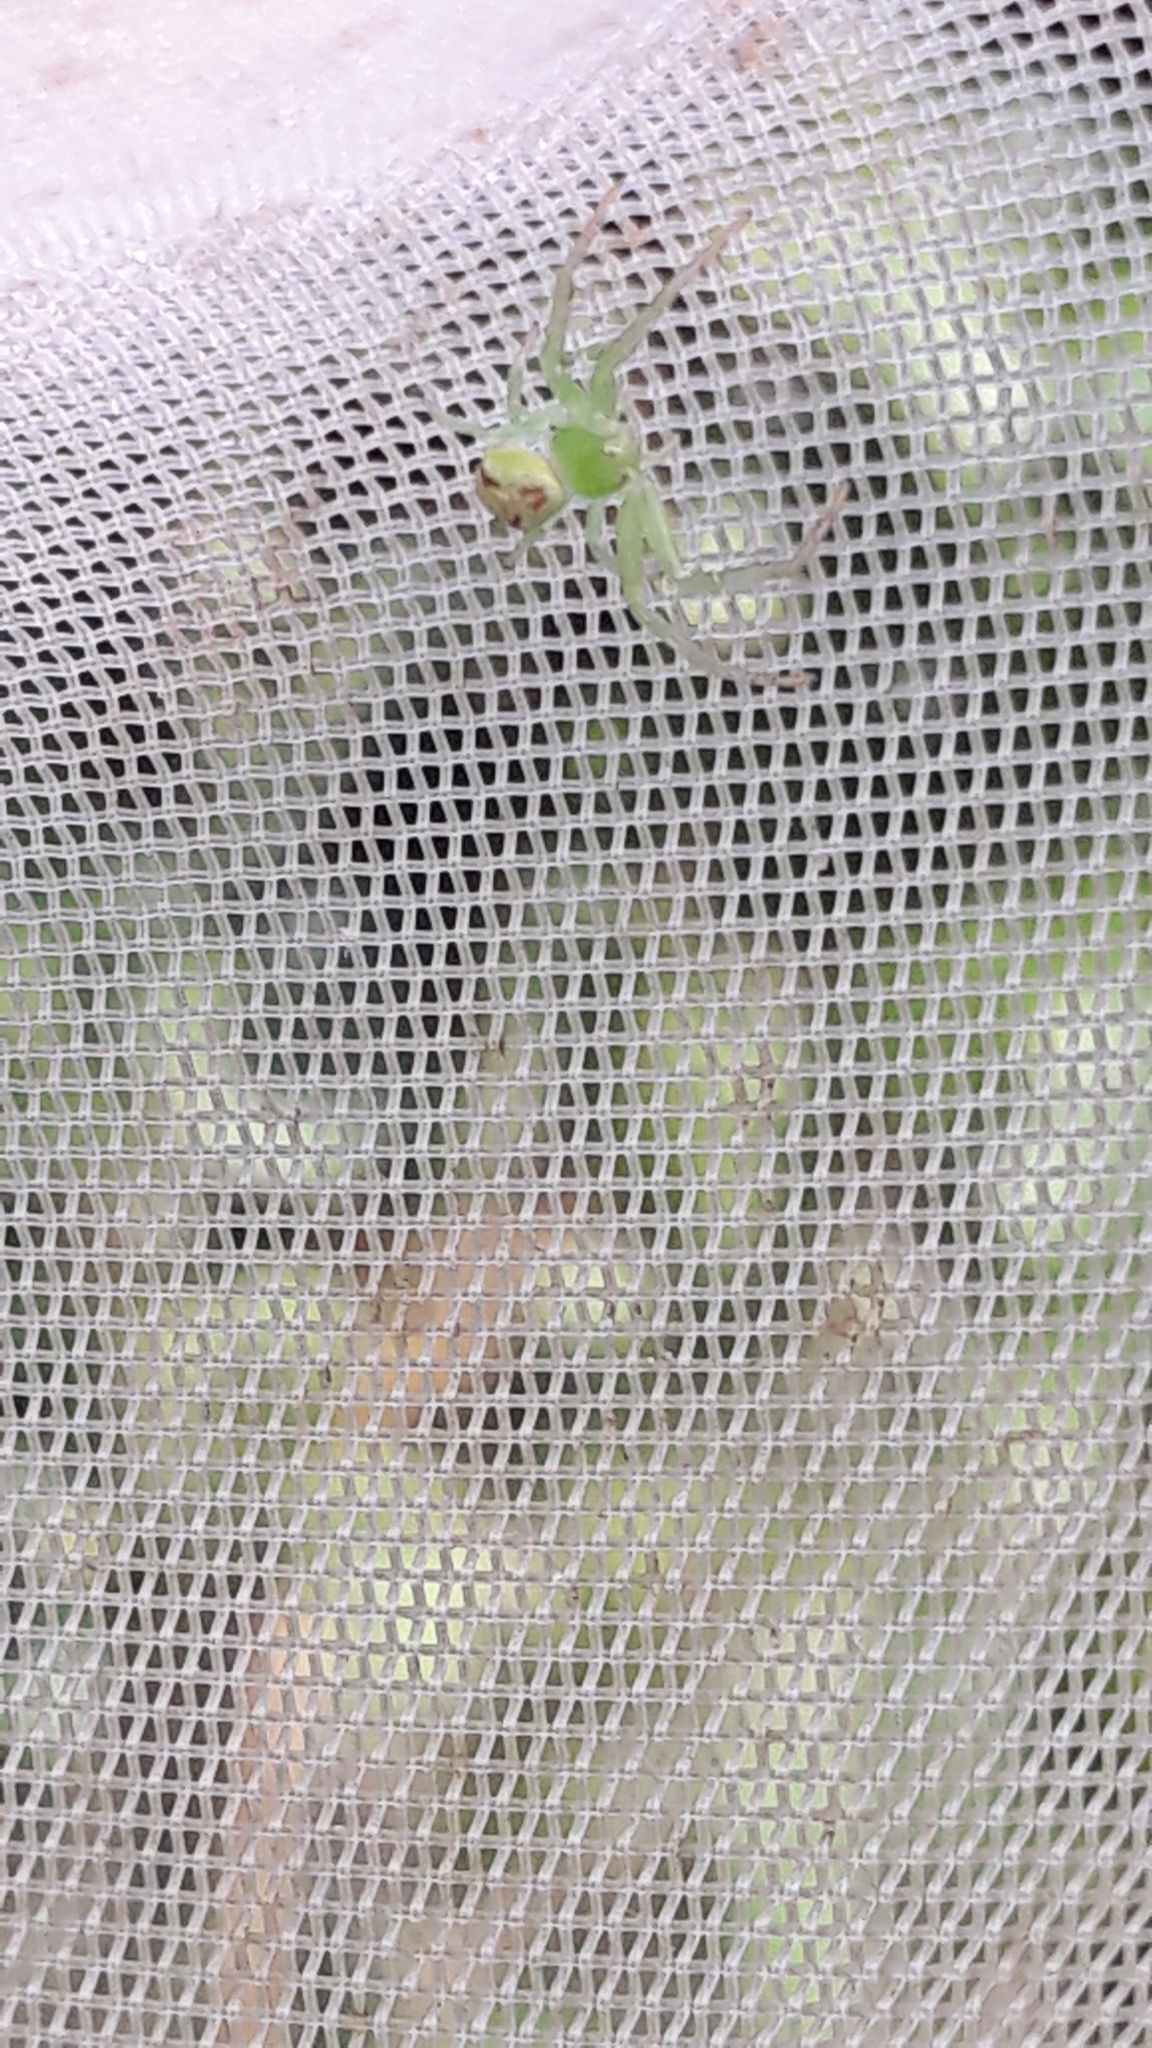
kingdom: Animalia
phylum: Arthropoda
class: Arachnida
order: Araneae
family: Thomisidae
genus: Ebrechtella
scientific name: Ebrechtella tricuspidata
